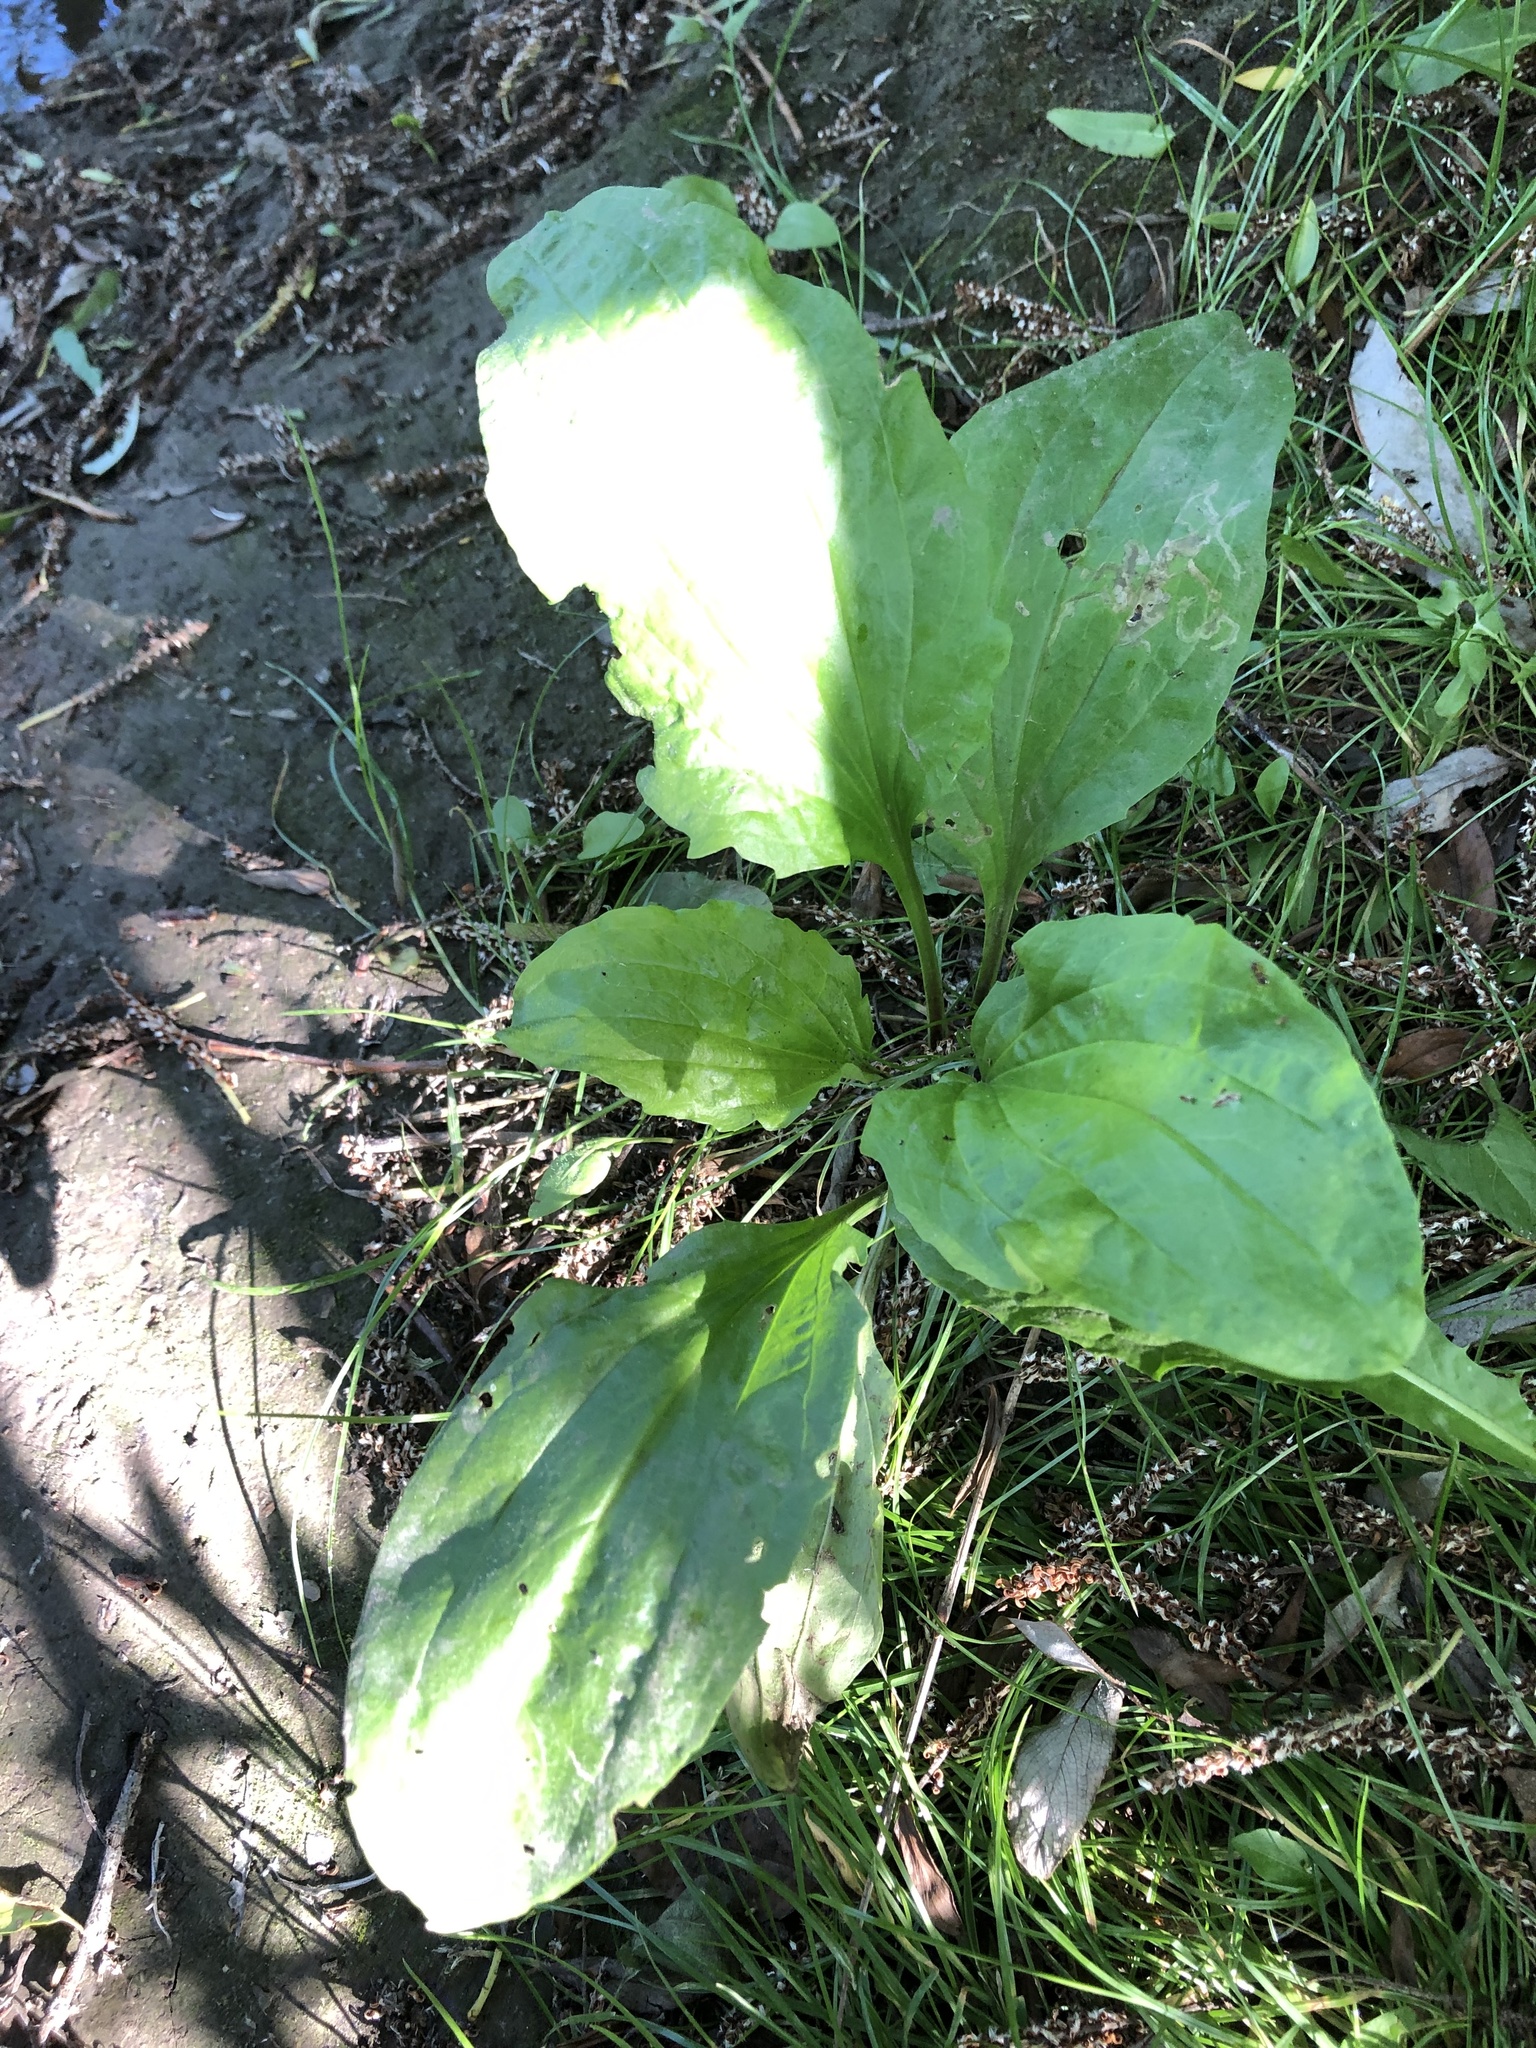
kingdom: Plantae
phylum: Tracheophyta
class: Magnoliopsida
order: Lamiales
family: Plantaginaceae
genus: Plantago
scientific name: Plantago rugelii
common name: American plantain
